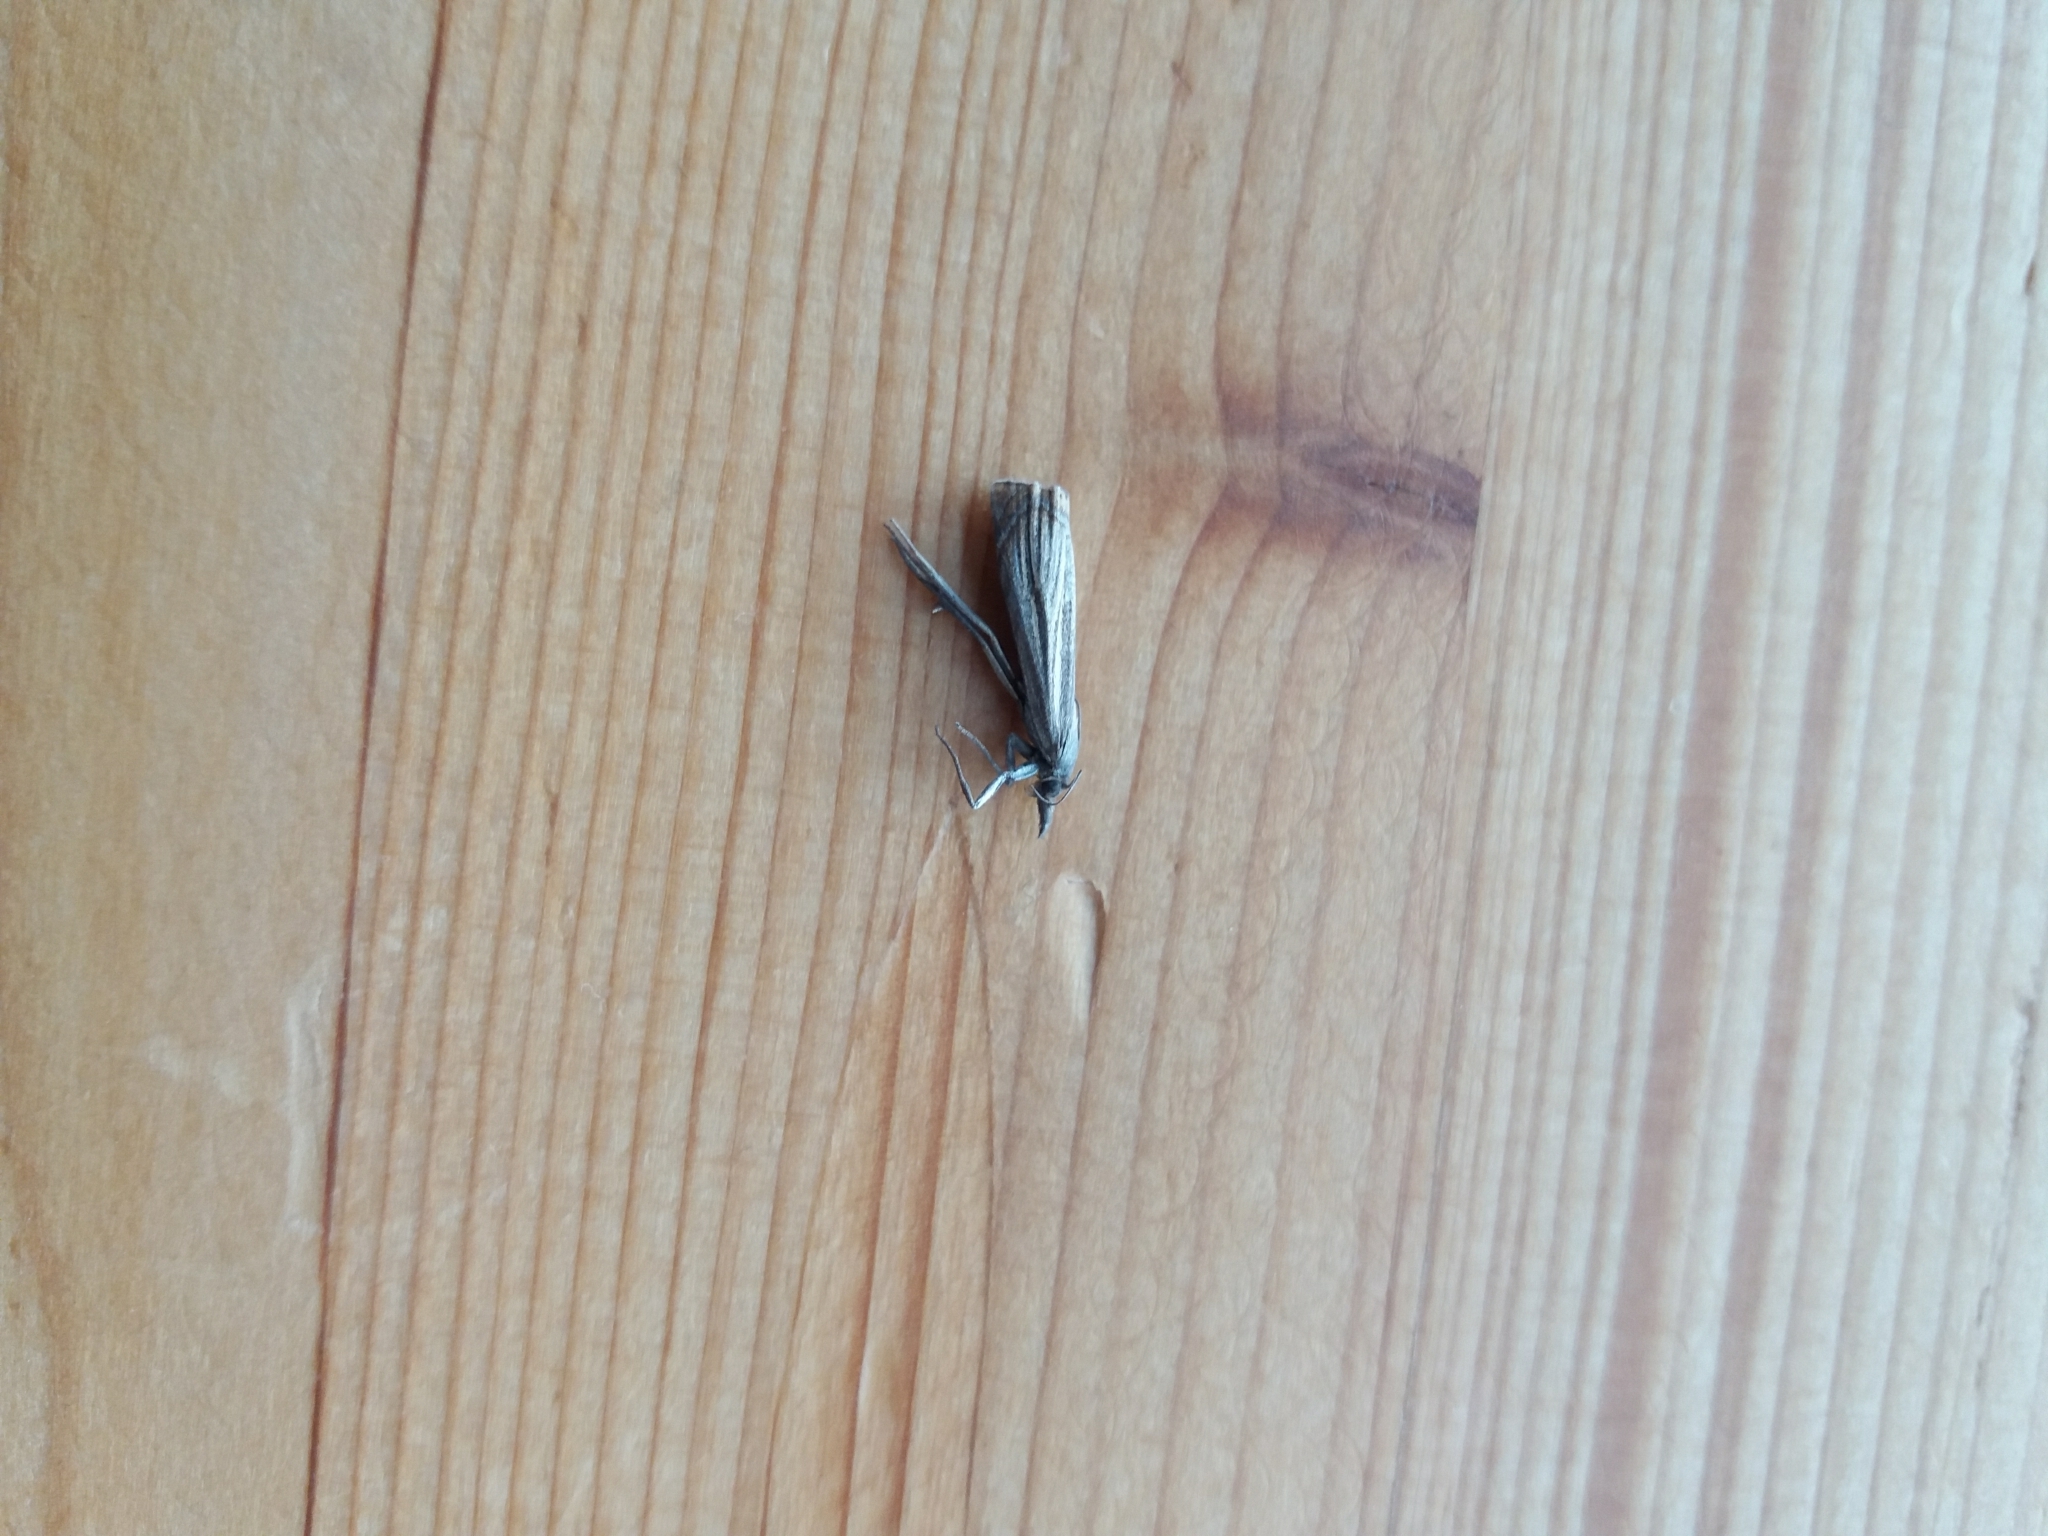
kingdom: Animalia
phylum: Arthropoda
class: Insecta
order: Lepidoptera
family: Crambidae
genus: Chrysoteuchia
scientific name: Chrysoteuchia culmella
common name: Garden grass-veneer
